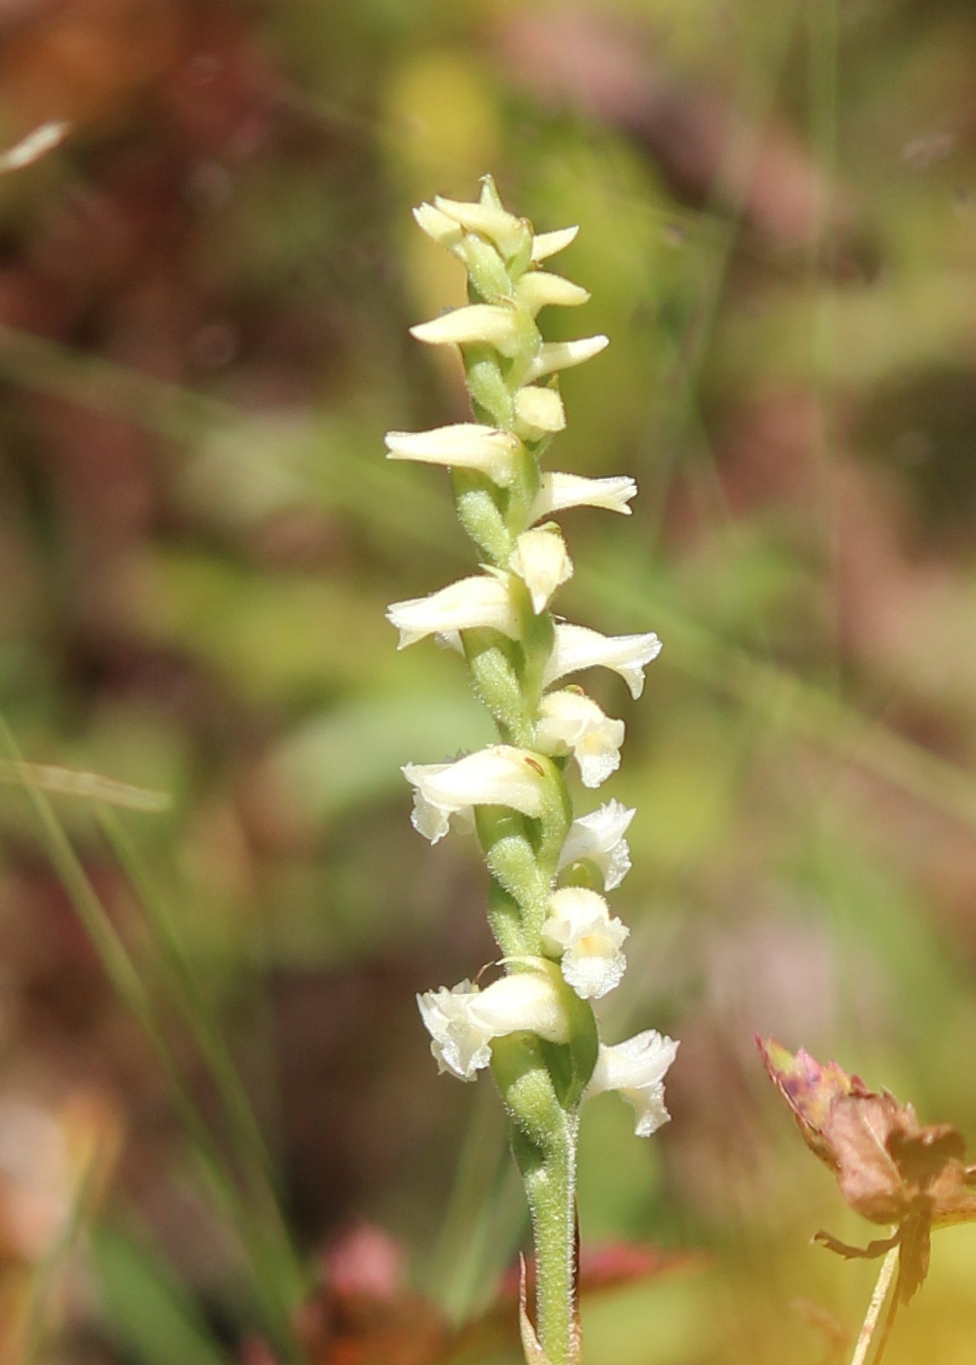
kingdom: Plantae
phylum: Tracheophyta
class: Liliopsida
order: Asparagales
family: Orchidaceae
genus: Spiranthes
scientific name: Spiranthes ochroleuca
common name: Yellow ladies'-tresses
